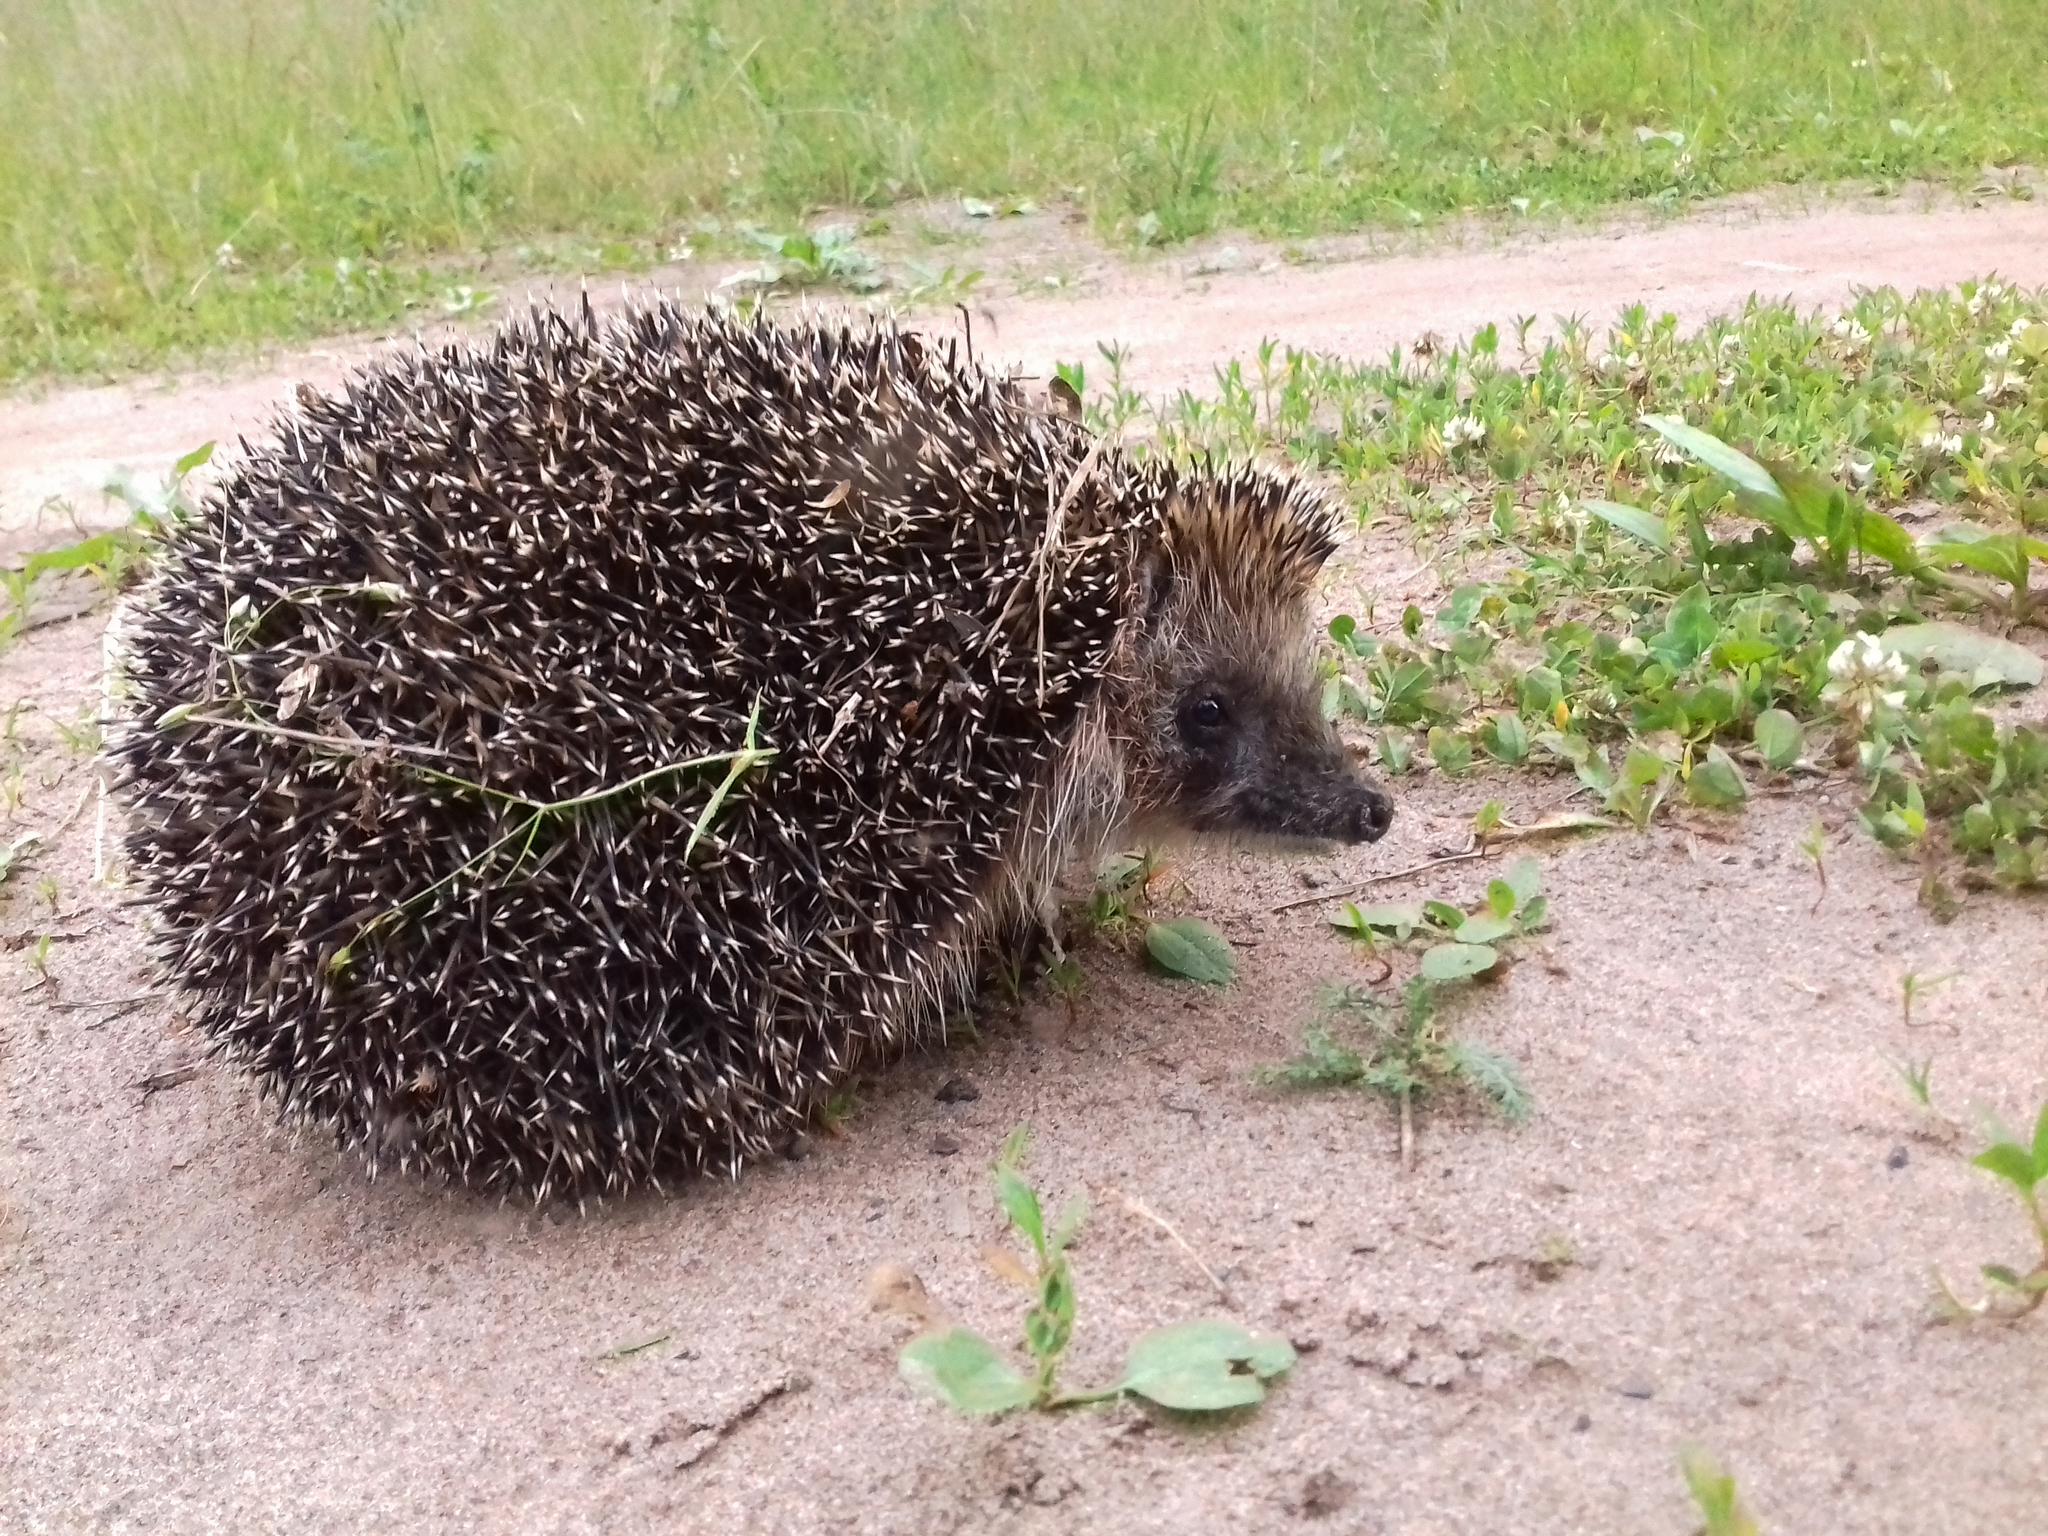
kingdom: Animalia
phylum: Chordata
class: Mammalia
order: Erinaceomorpha
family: Erinaceidae
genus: Erinaceus
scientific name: Erinaceus roumanicus
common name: Northern white-breasted hedgehog
